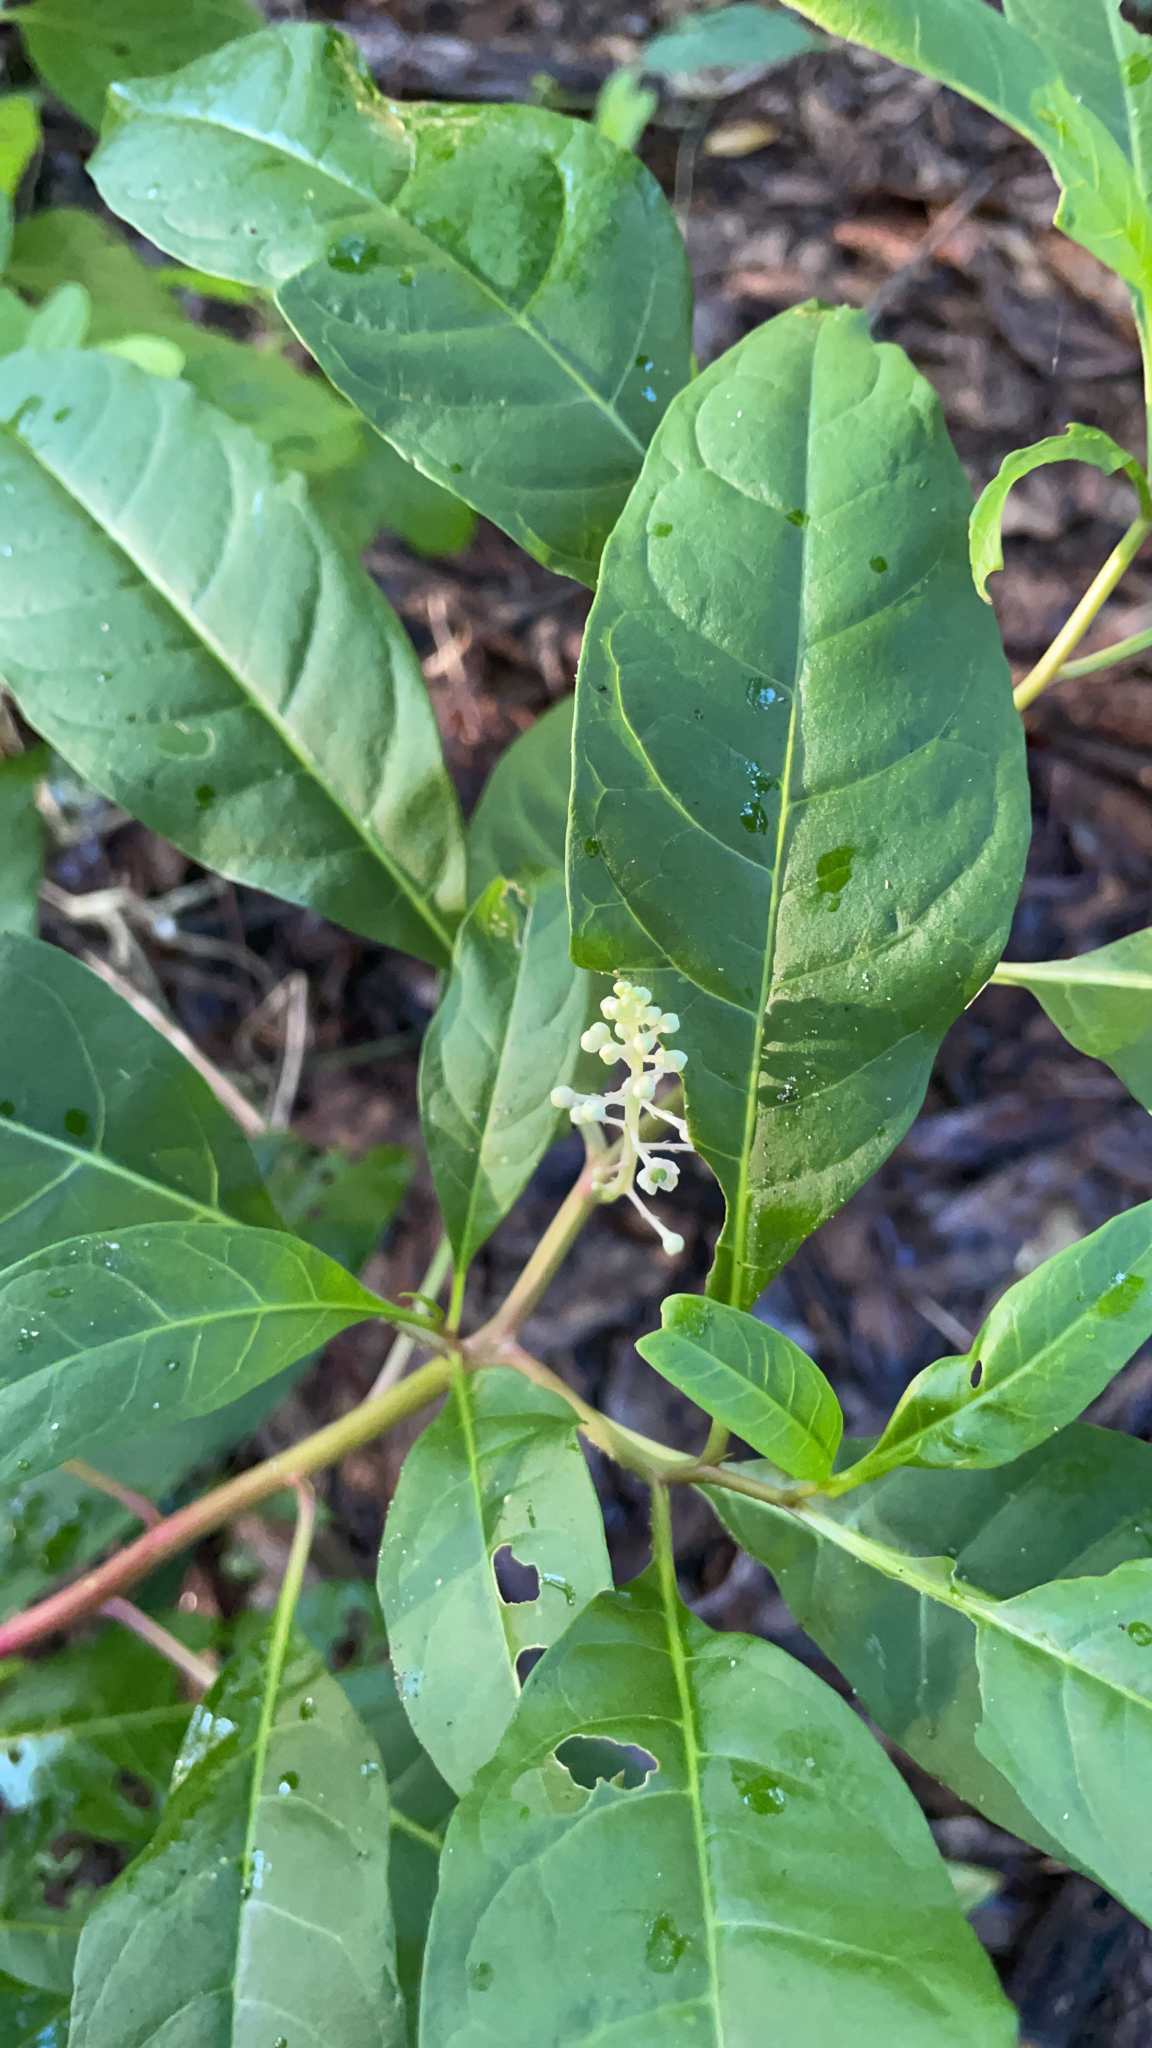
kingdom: Plantae
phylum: Tracheophyta
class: Magnoliopsida
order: Caryophyllales
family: Phytolaccaceae
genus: Phytolacca
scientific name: Phytolacca americana
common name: American pokeweed
